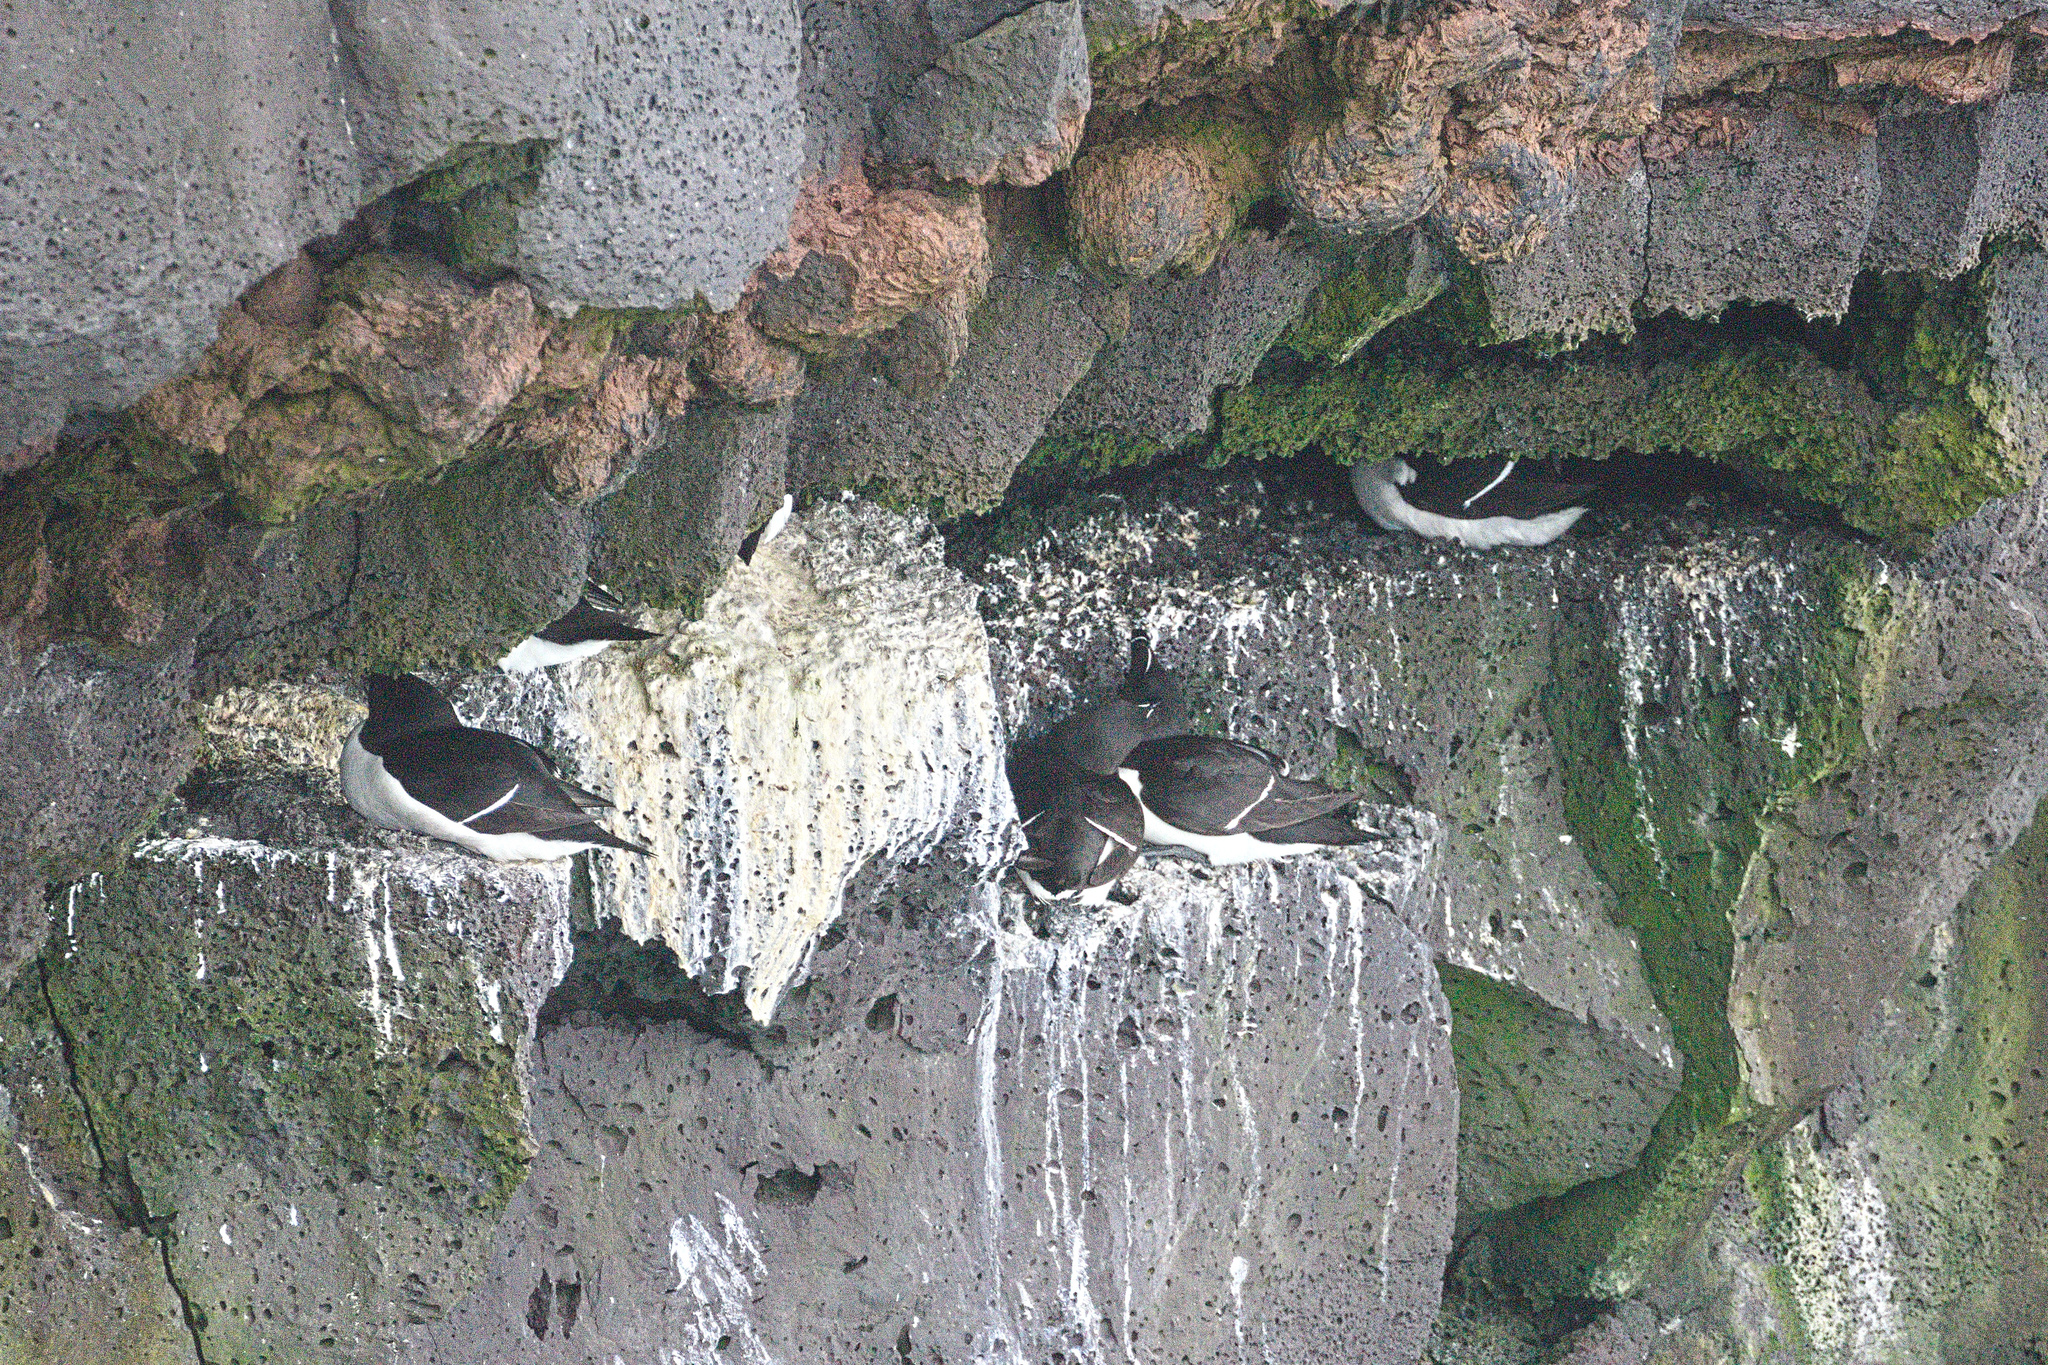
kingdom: Animalia
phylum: Chordata
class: Aves
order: Charadriiformes
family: Alcidae
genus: Alca
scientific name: Alca torda
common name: Razorbill
